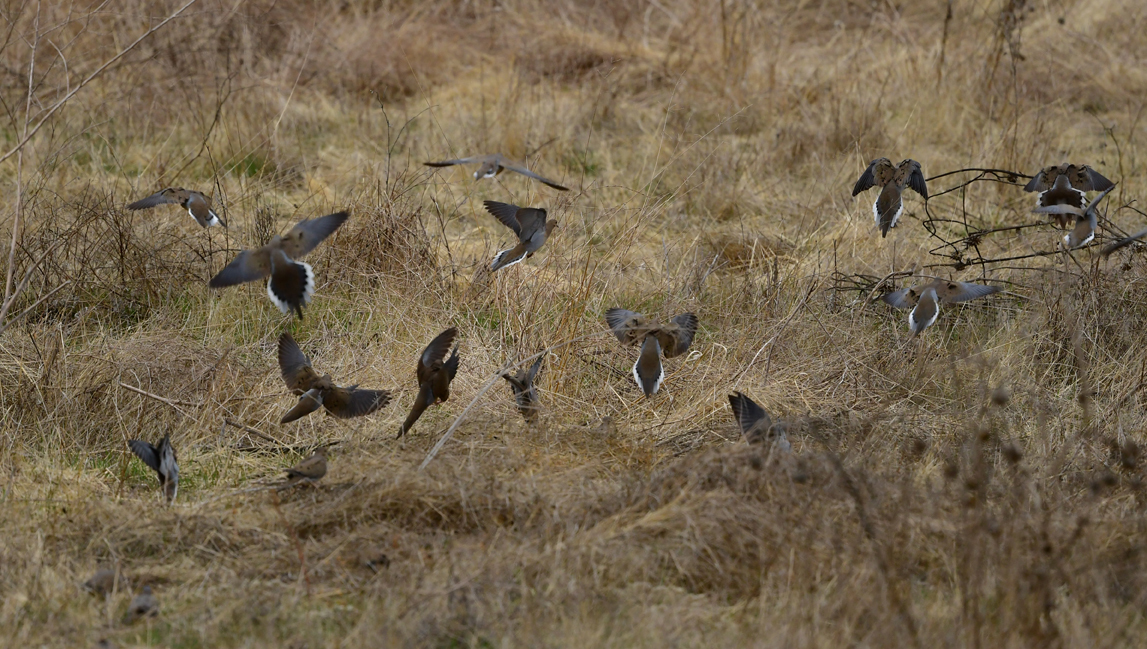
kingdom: Animalia
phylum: Chordata
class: Aves
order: Columbiformes
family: Columbidae
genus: Zenaida
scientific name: Zenaida macroura
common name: Mourning dove
